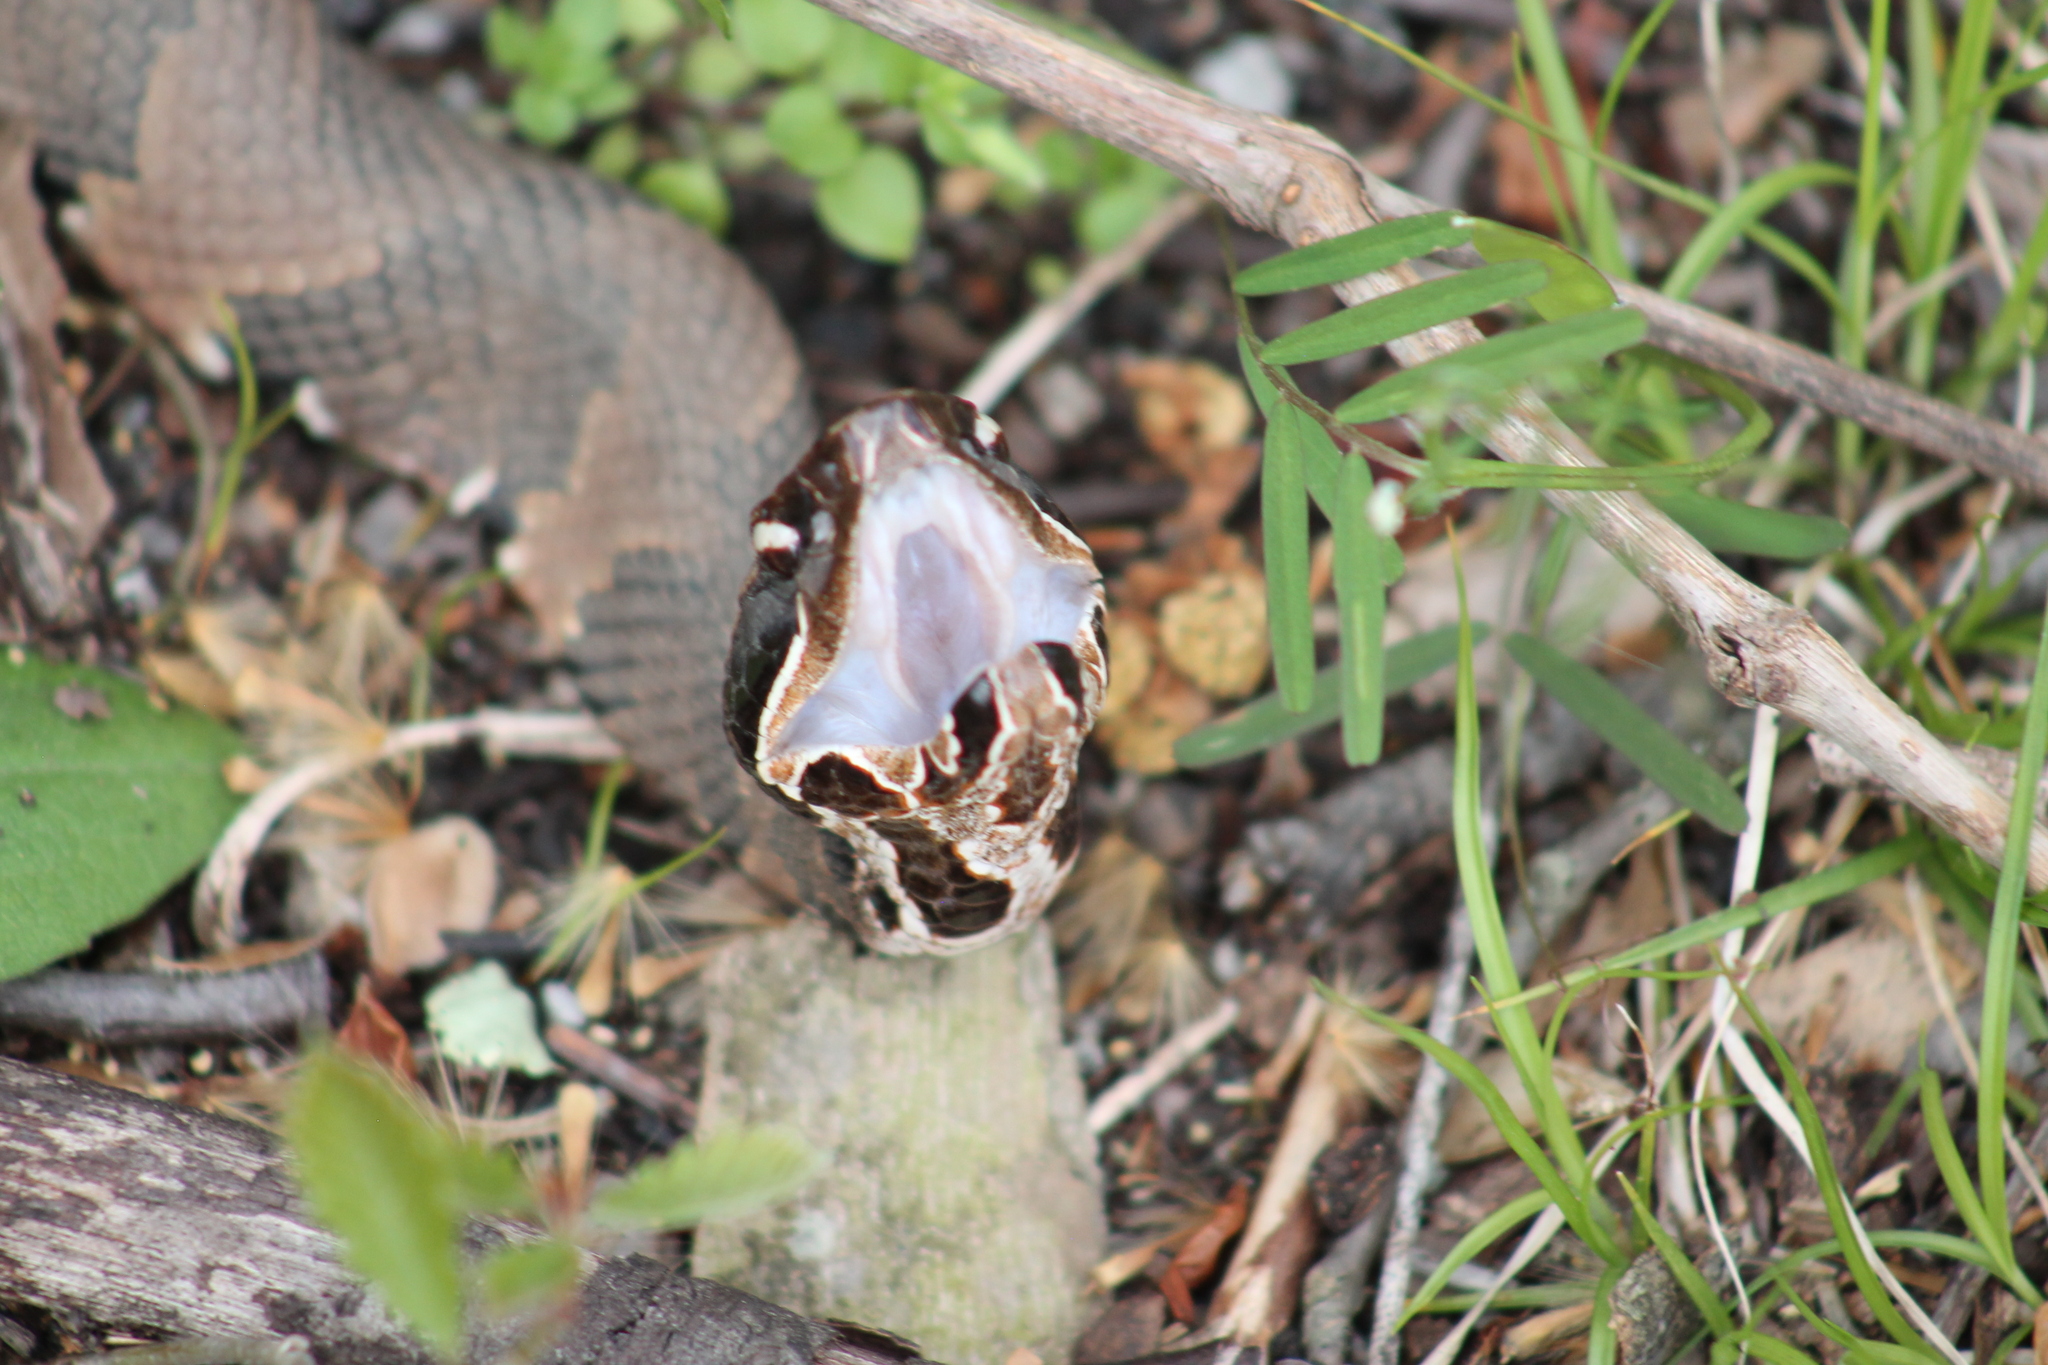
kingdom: Animalia
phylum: Chordata
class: Squamata
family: Viperidae
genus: Agkistrodon
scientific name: Agkistrodon piscivorus
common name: Cottonmouth
